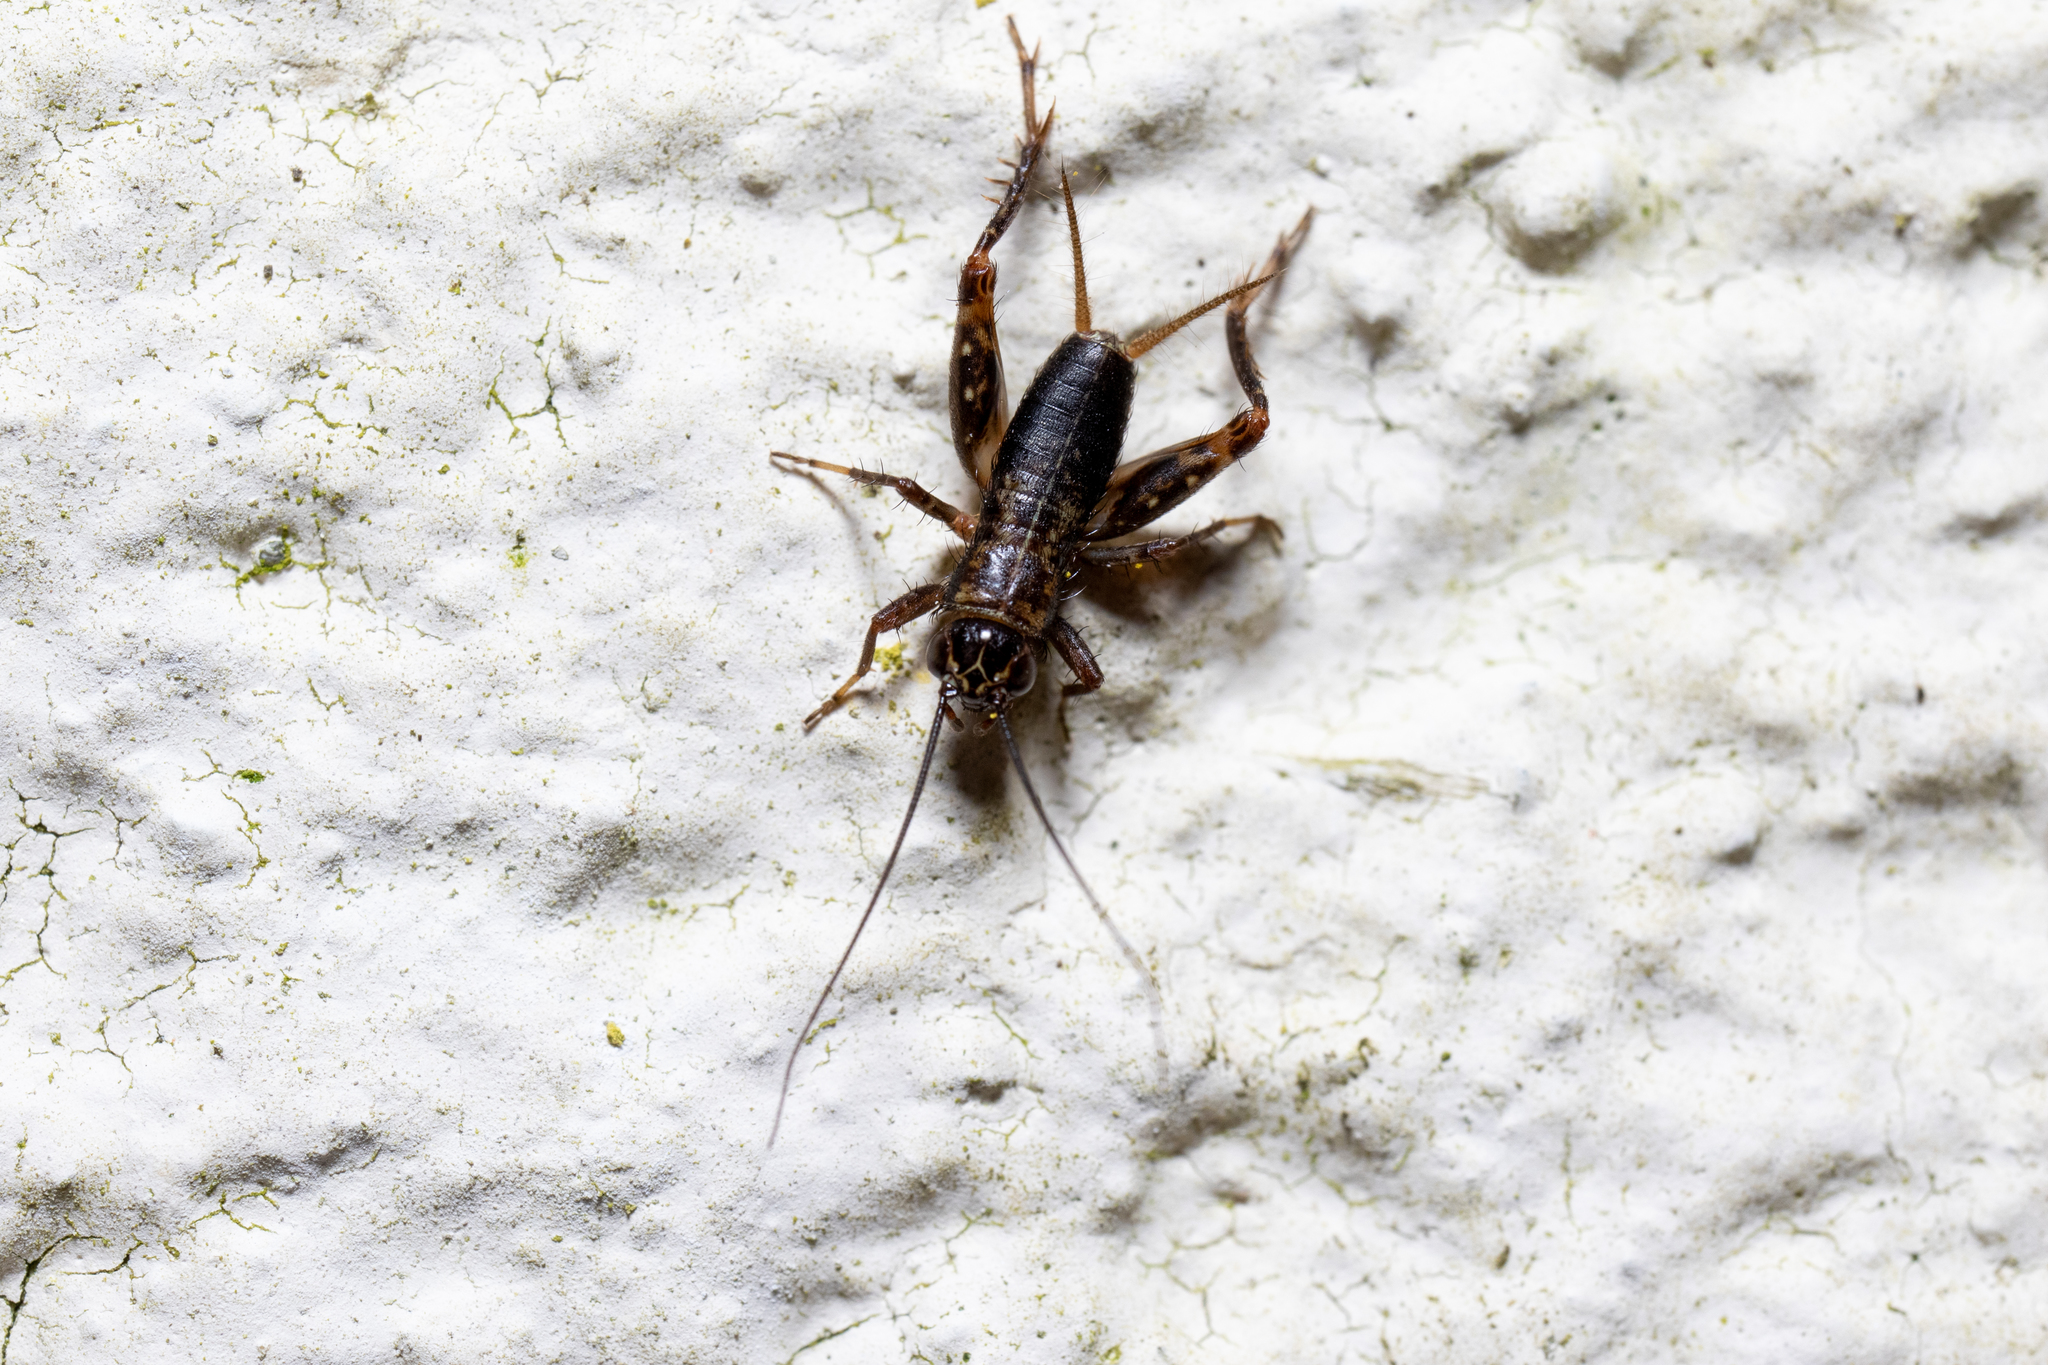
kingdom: Animalia
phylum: Arthropoda
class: Insecta
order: Orthoptera
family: Trigonidiidae
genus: Nemobius
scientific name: Nemobius sylvestris
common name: Wood-cricket
